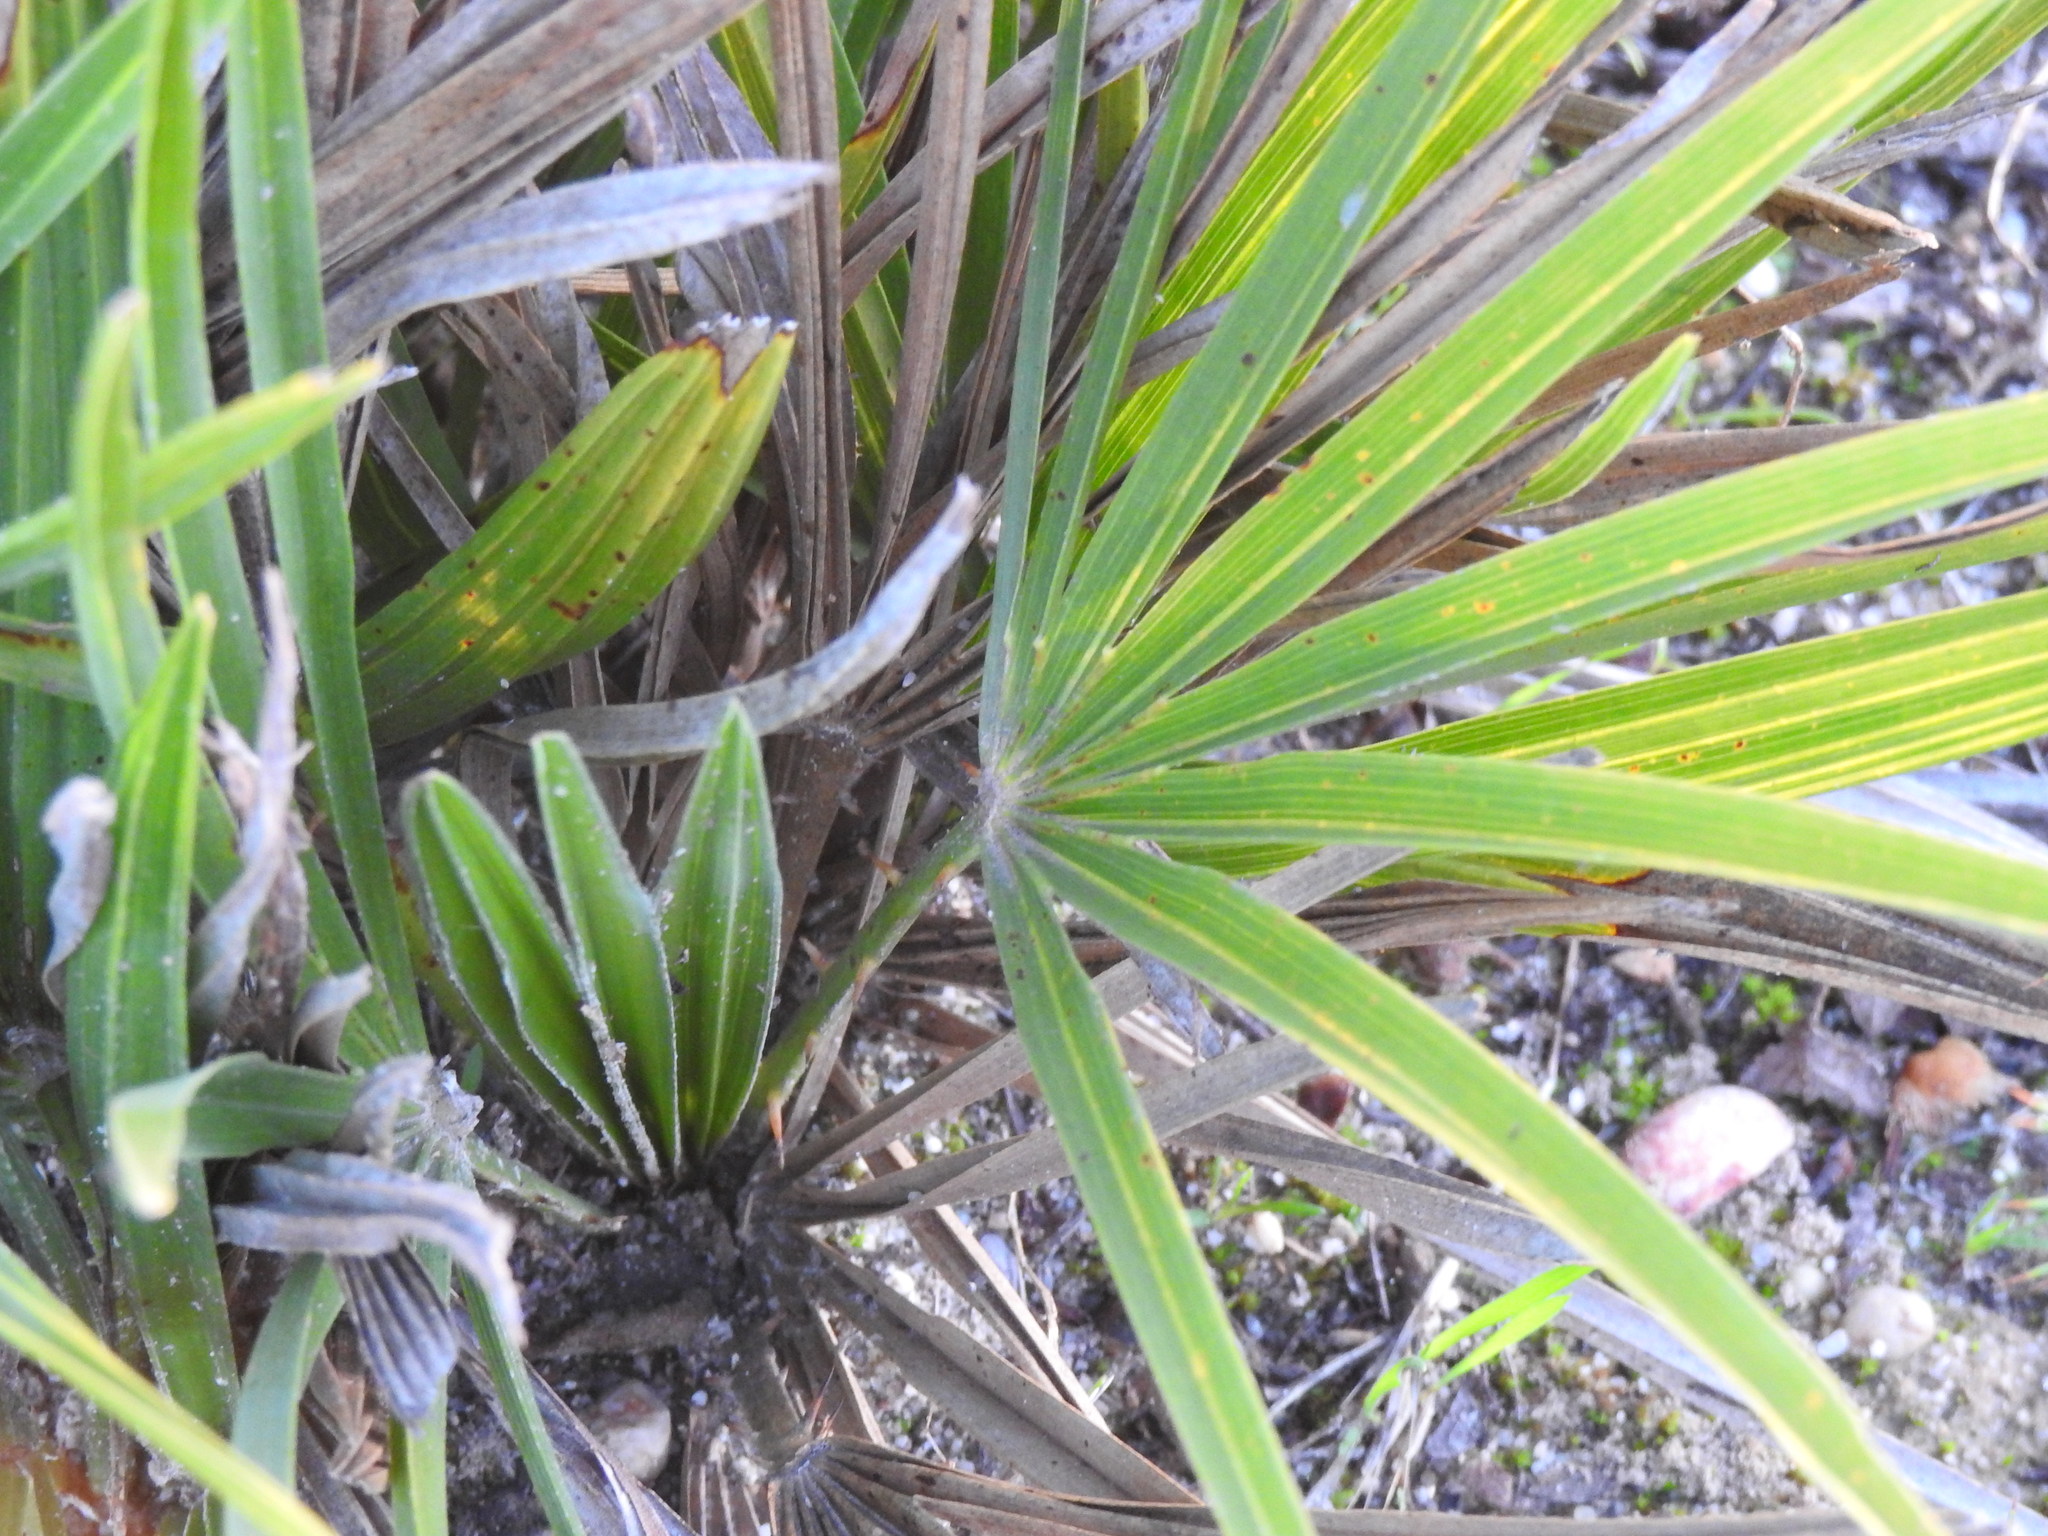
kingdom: Plantae
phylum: Tracheophyta
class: Liliopsida
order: Arecales
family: Arecaceae
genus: Chamaerops
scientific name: Chamaerops humilis
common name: Dwarf fan palm
